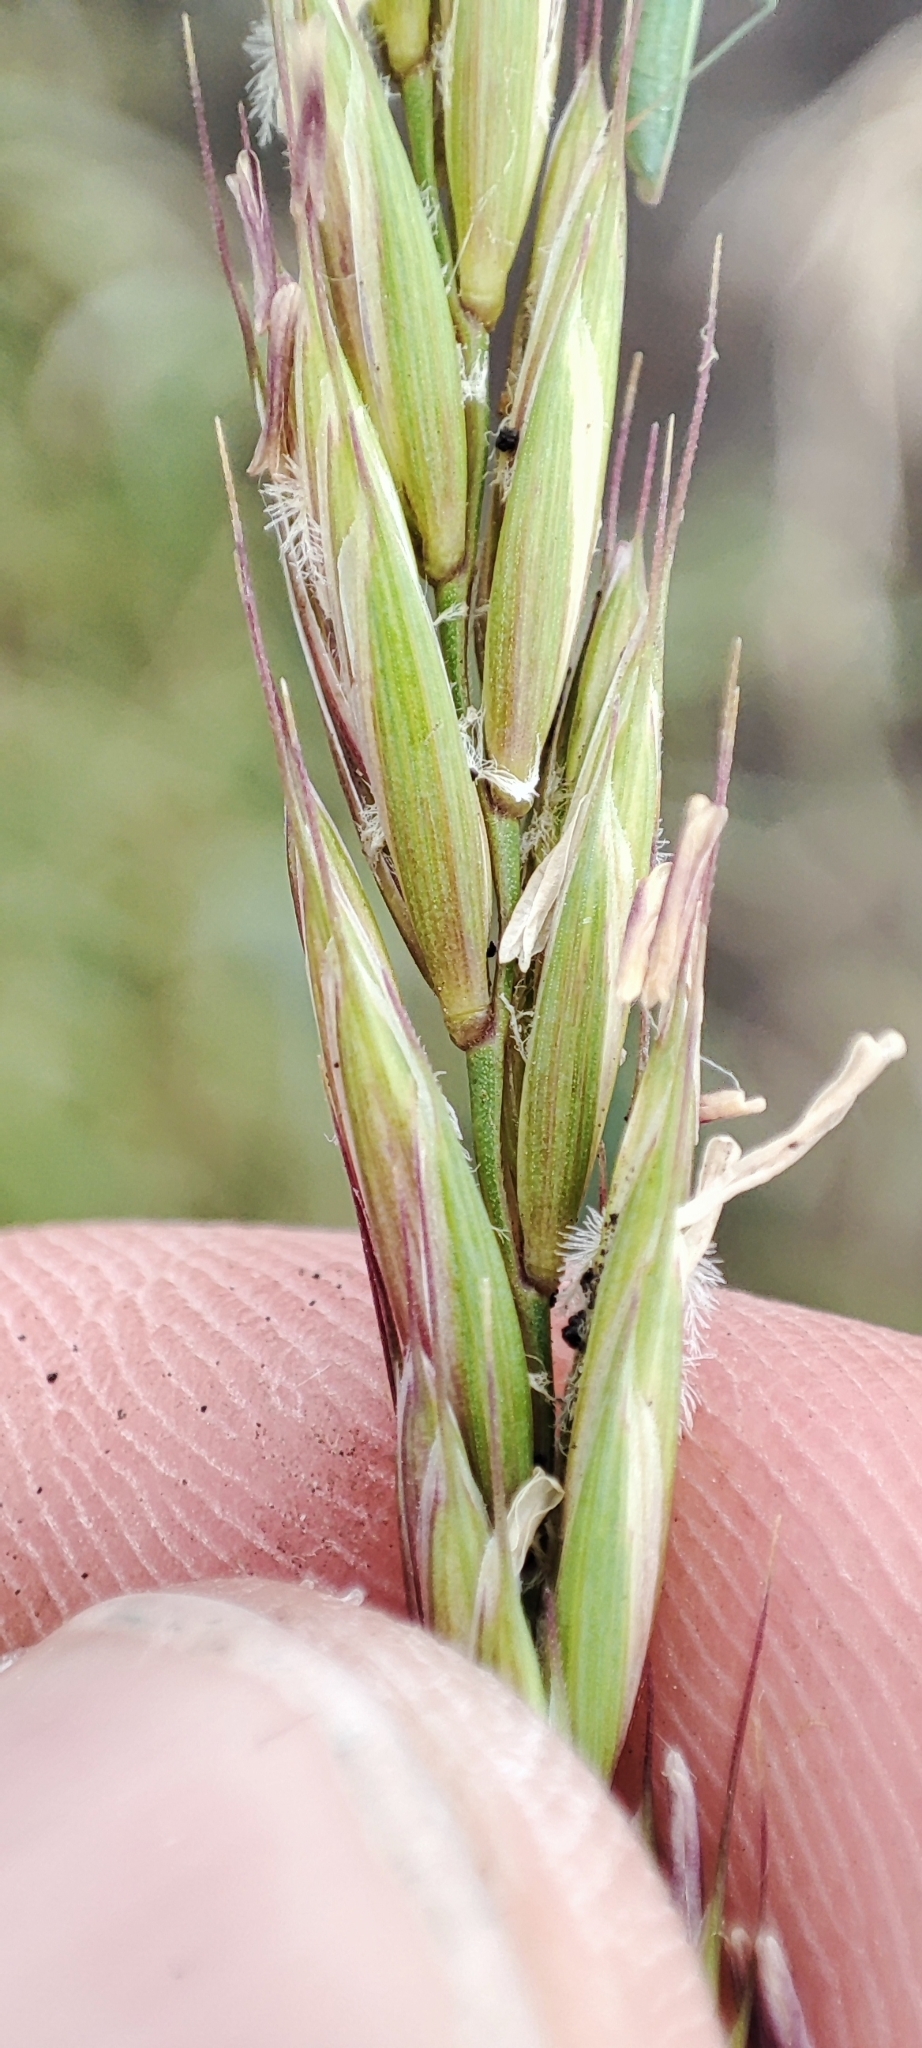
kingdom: Plantae
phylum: Tracheophyta
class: Liliopsida
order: Poales
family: Poaceae
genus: Elymus
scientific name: Elymus repens
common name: Quackgrass
